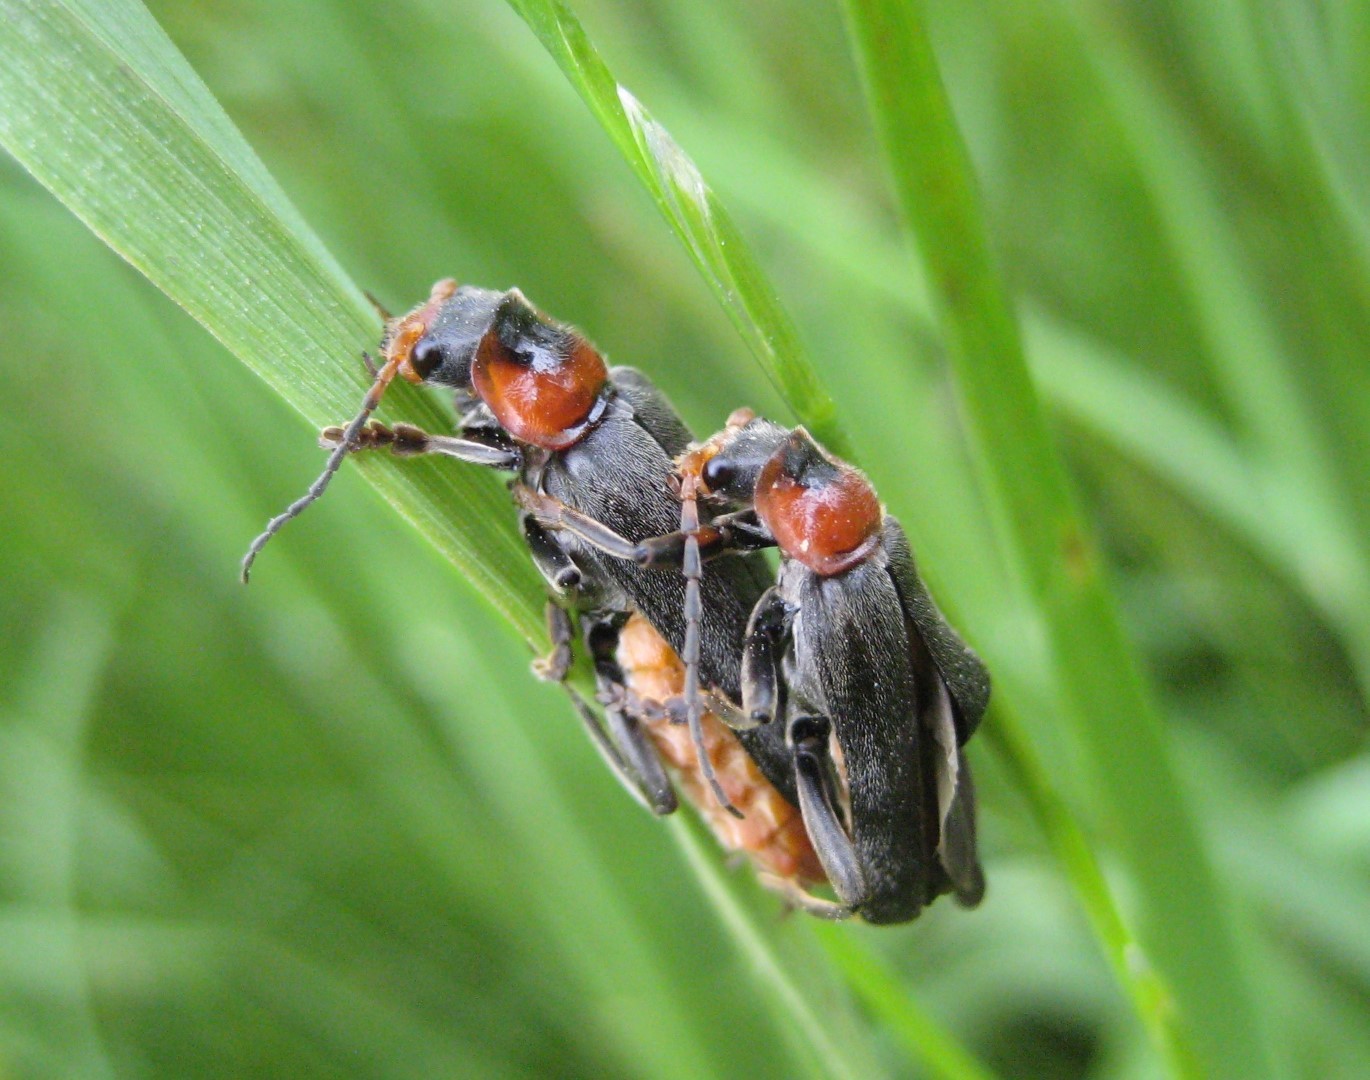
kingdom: Animalia
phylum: Arthropoda
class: Insecta
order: Coleoptera
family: Cantharidae
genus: Cantharis
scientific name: Cantharis fusca
